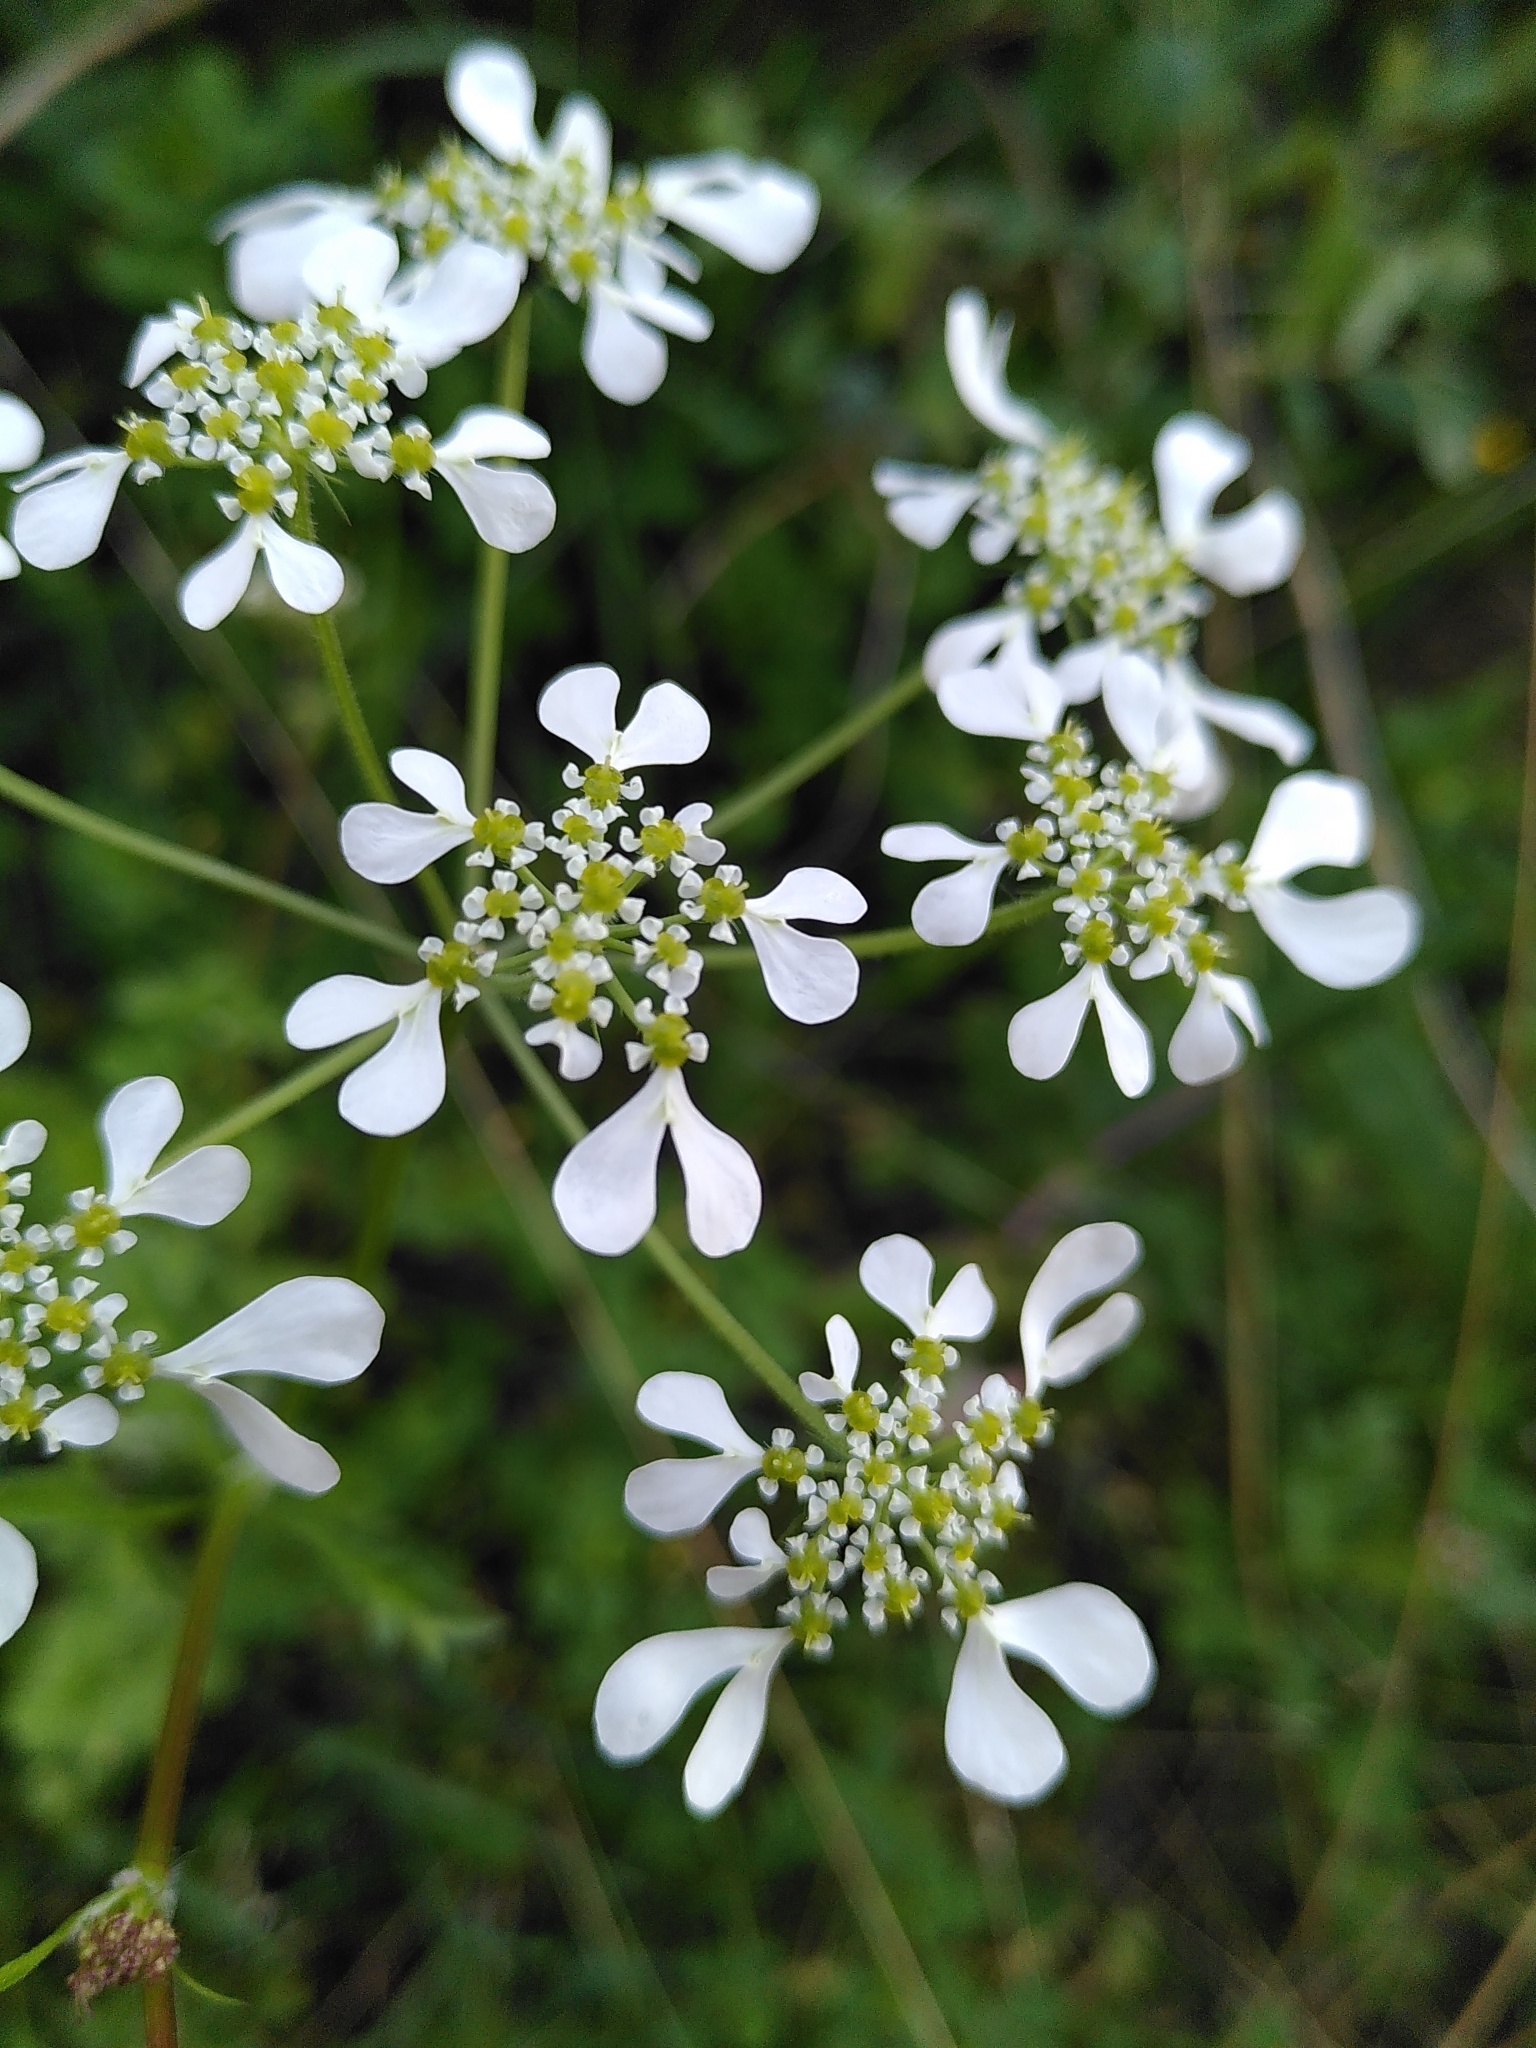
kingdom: Plantae
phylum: Tracheophyta
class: Magnoliopsida
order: Apiales
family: Apiaceae
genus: Tordylium
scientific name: Tordylium apulum
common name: Mediterranean hartwort
